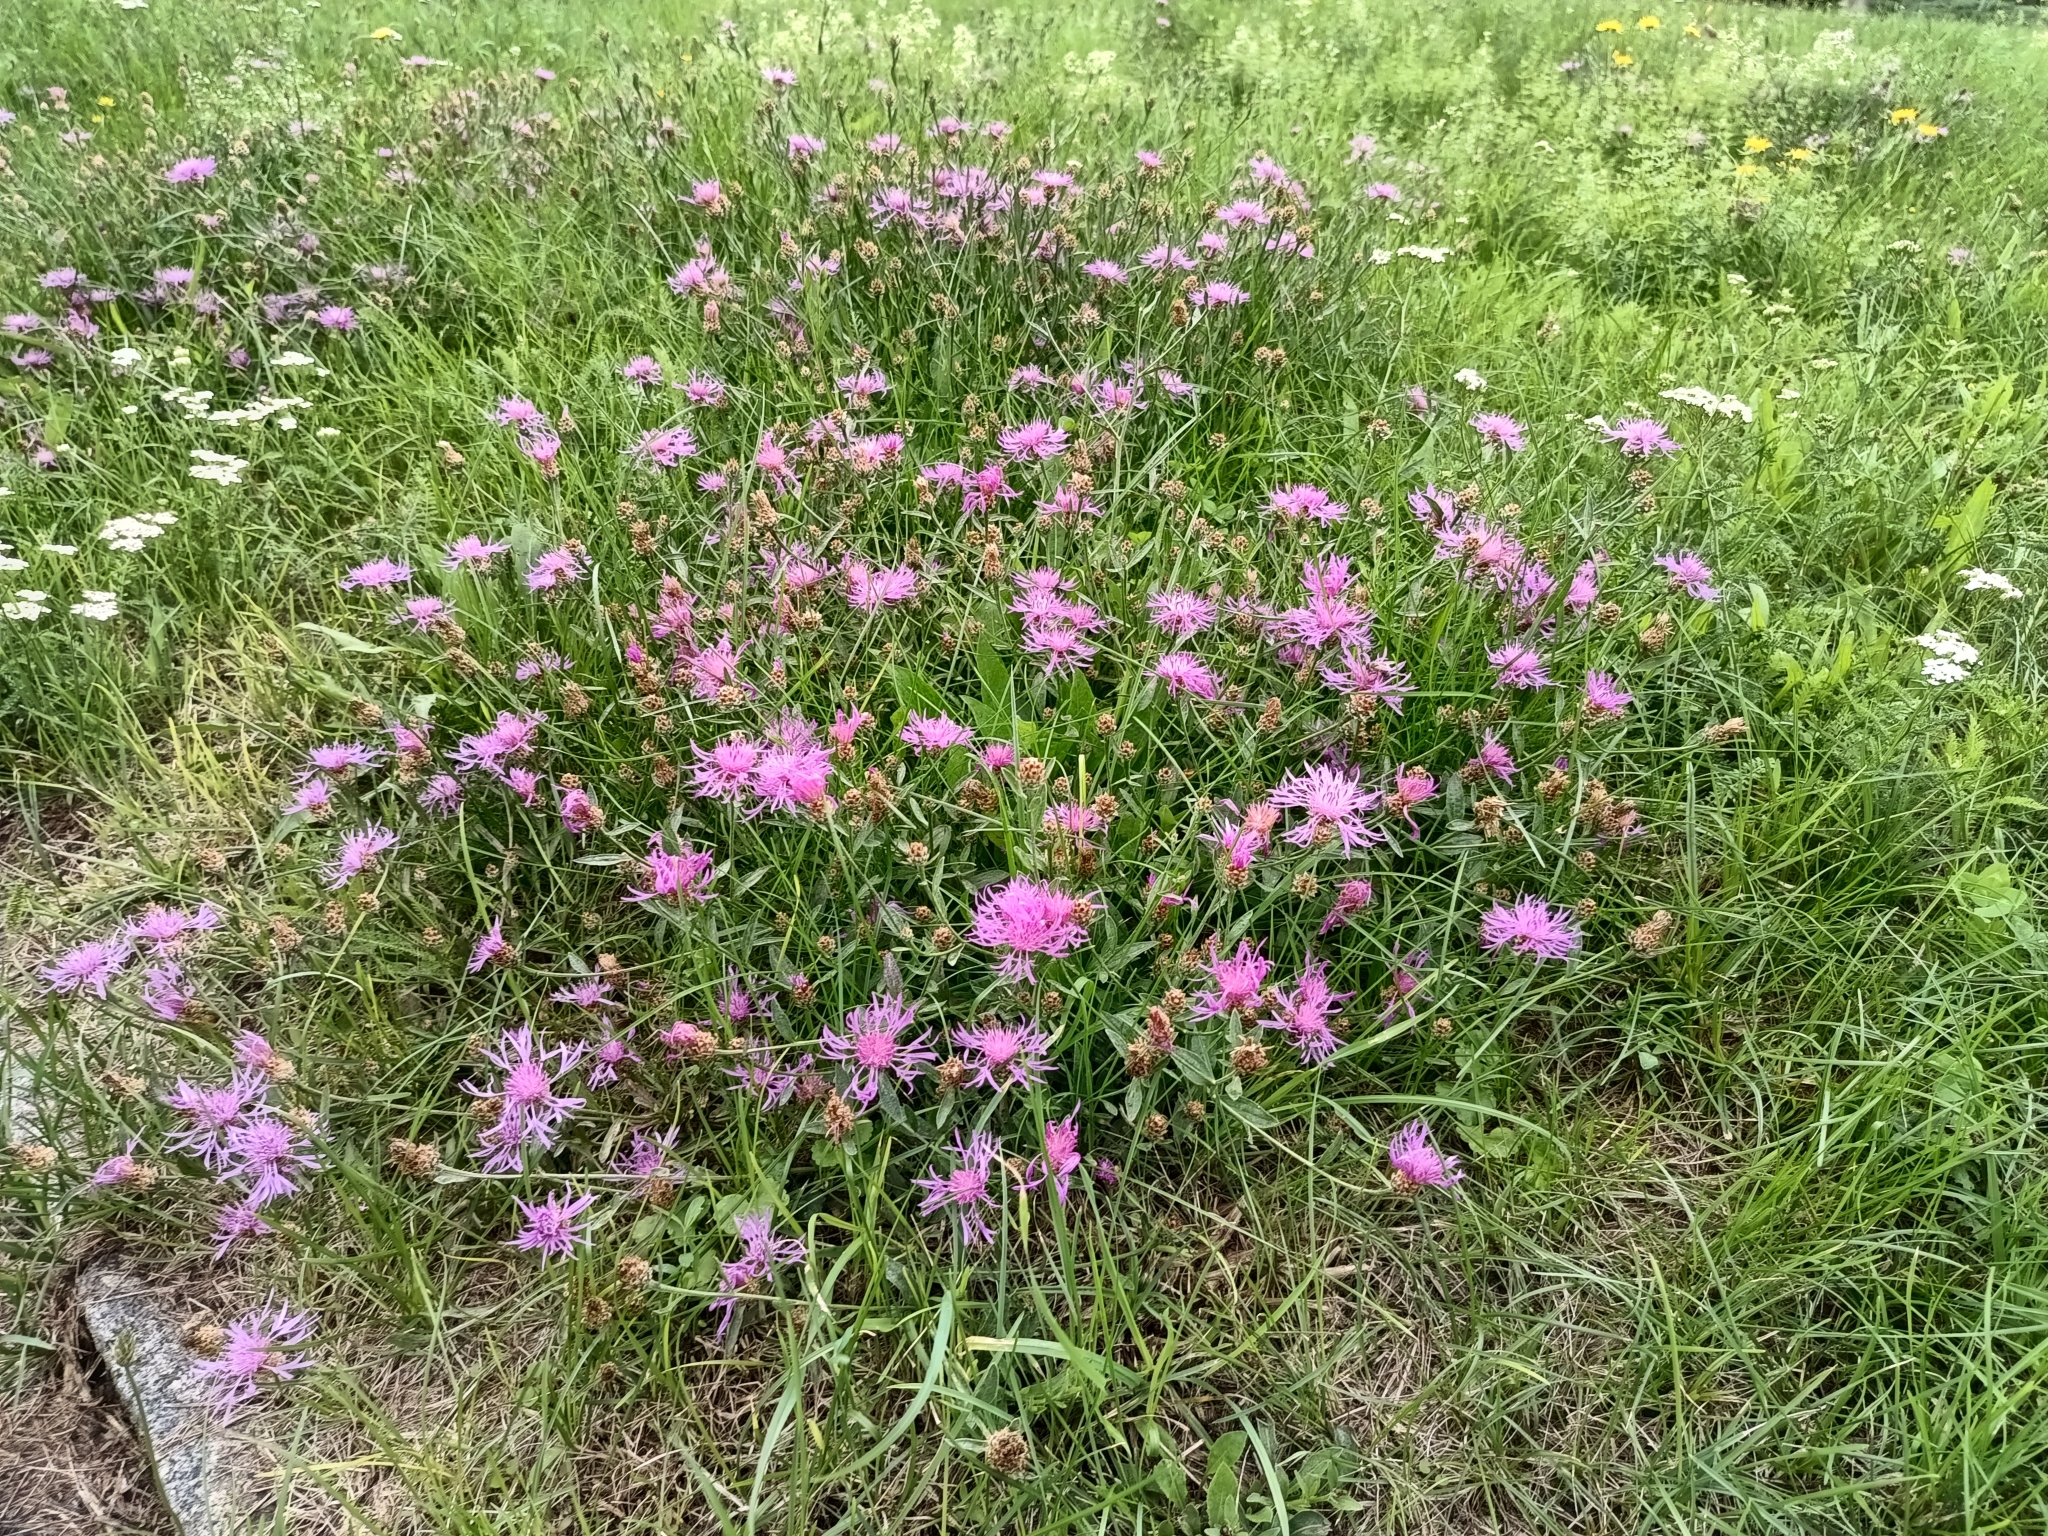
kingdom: Plantae
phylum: Tracheophyta
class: Magnoliopsida
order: Asterales
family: Asteraceae
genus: Centaurea
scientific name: Centaurea jacea
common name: Brown knapweed
